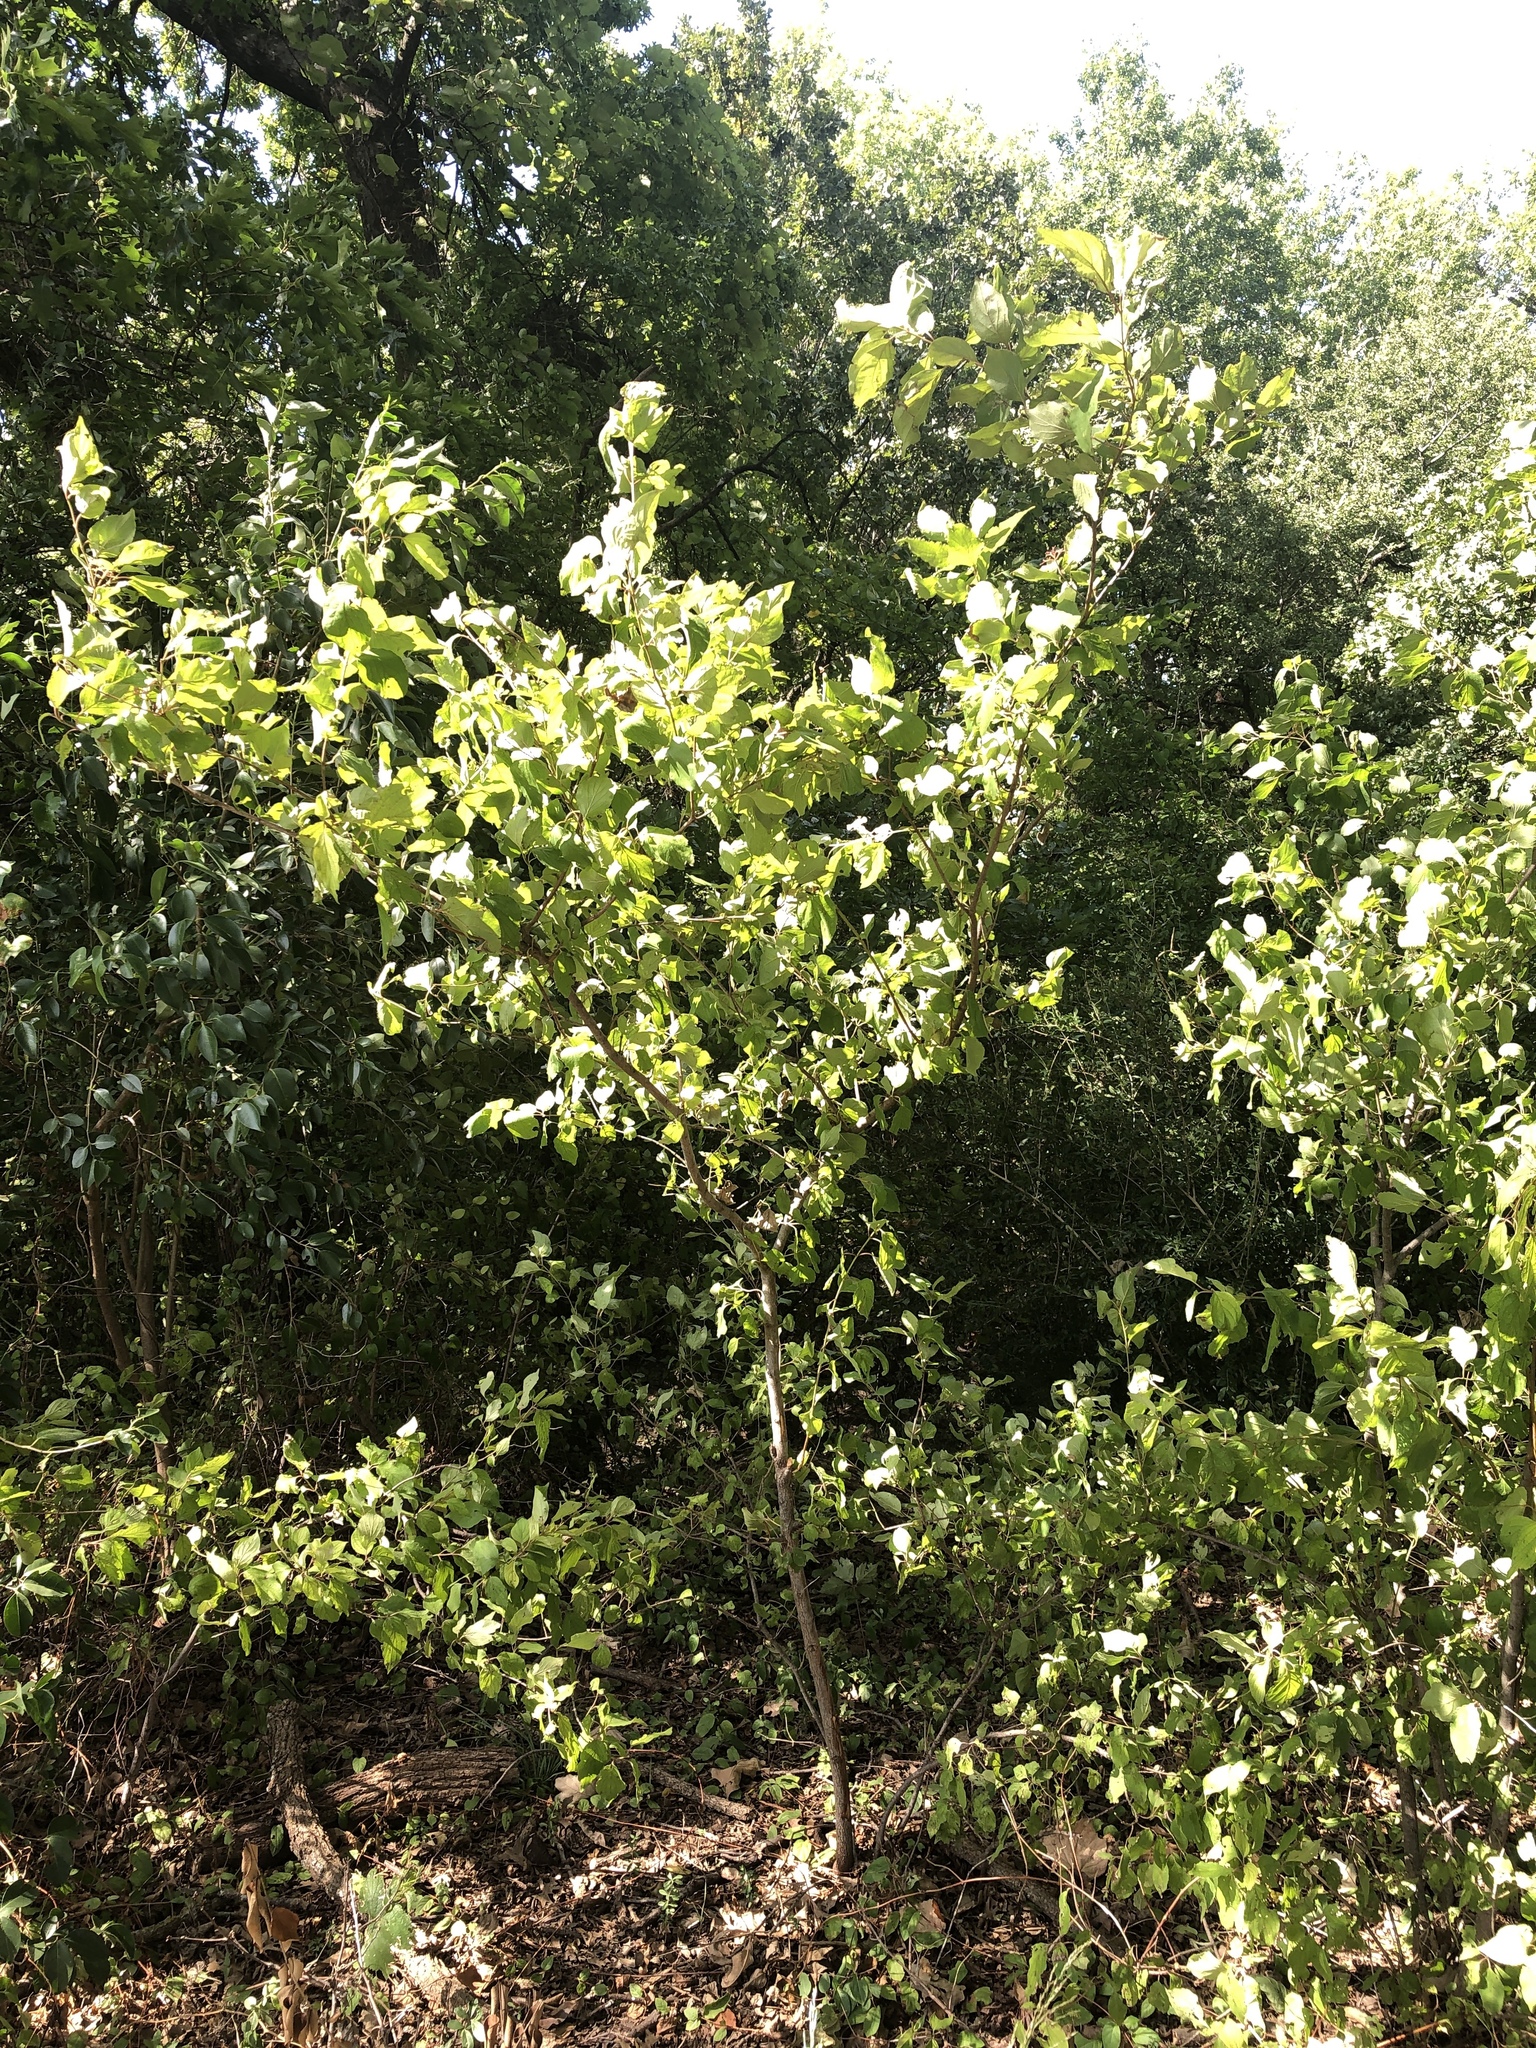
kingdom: Plantae
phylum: Tracheophyta
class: Magnoliopsida
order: Cornales
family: Cornaceae
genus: Cornus
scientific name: Cornus drummondii
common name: Rough-leaf dogwood
